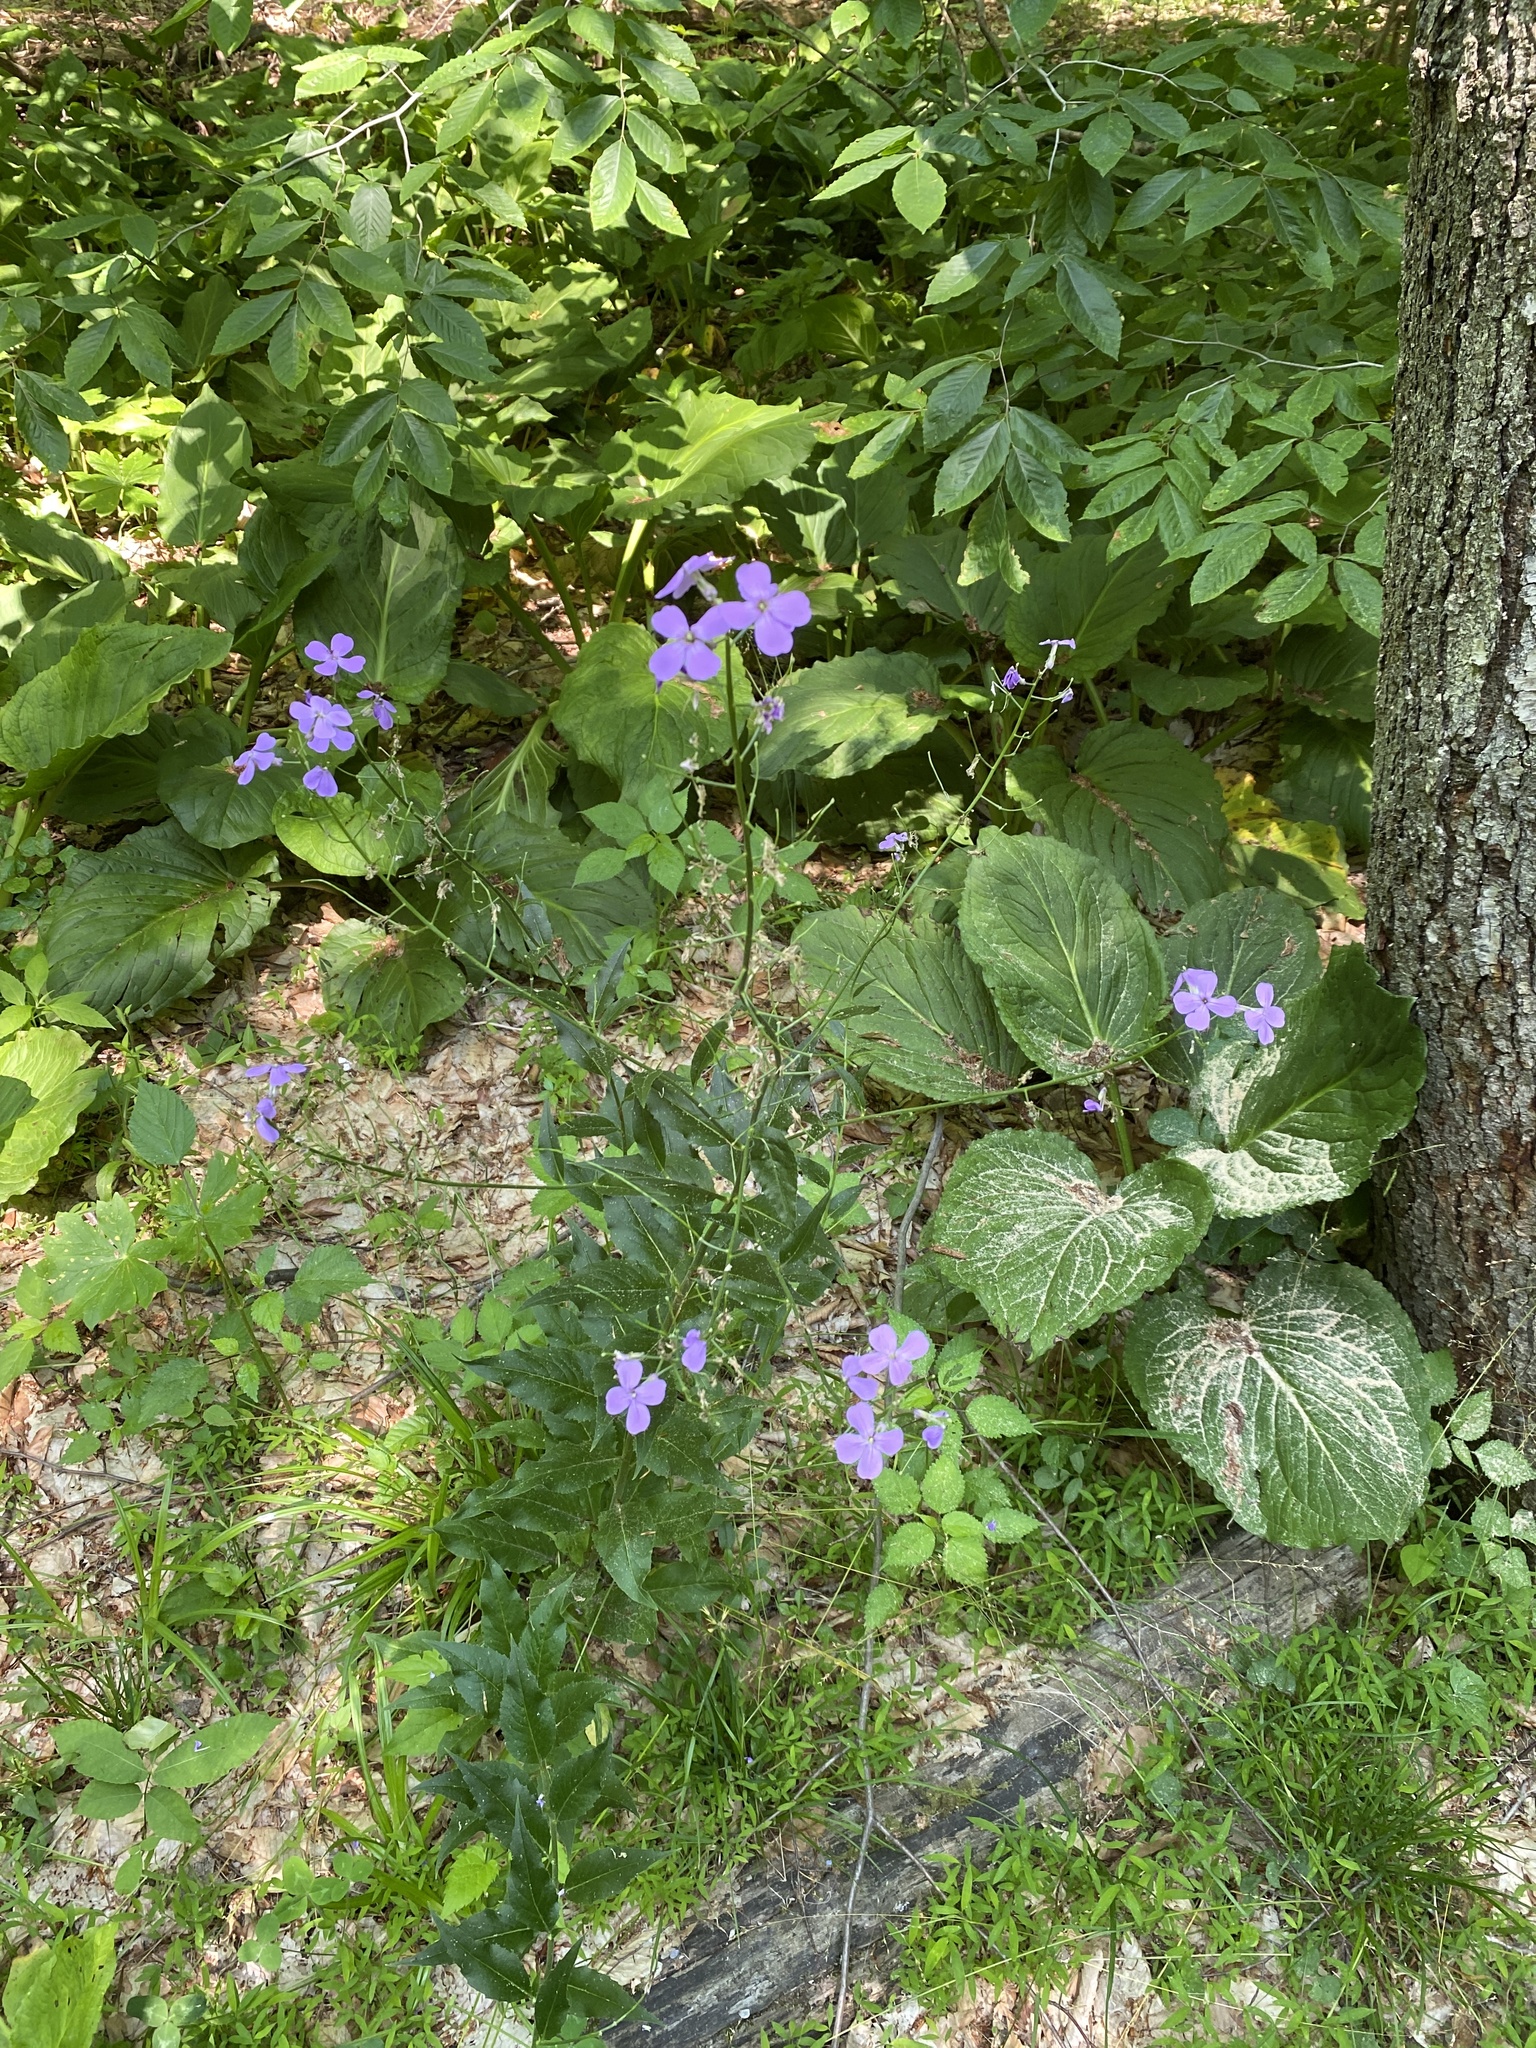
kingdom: Plantae
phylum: Tracheophyta
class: Magnoliopsida
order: Brassicales
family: Brassicaceae
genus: Hesperis
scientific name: Hesperis matronalis
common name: Dame's-violet
